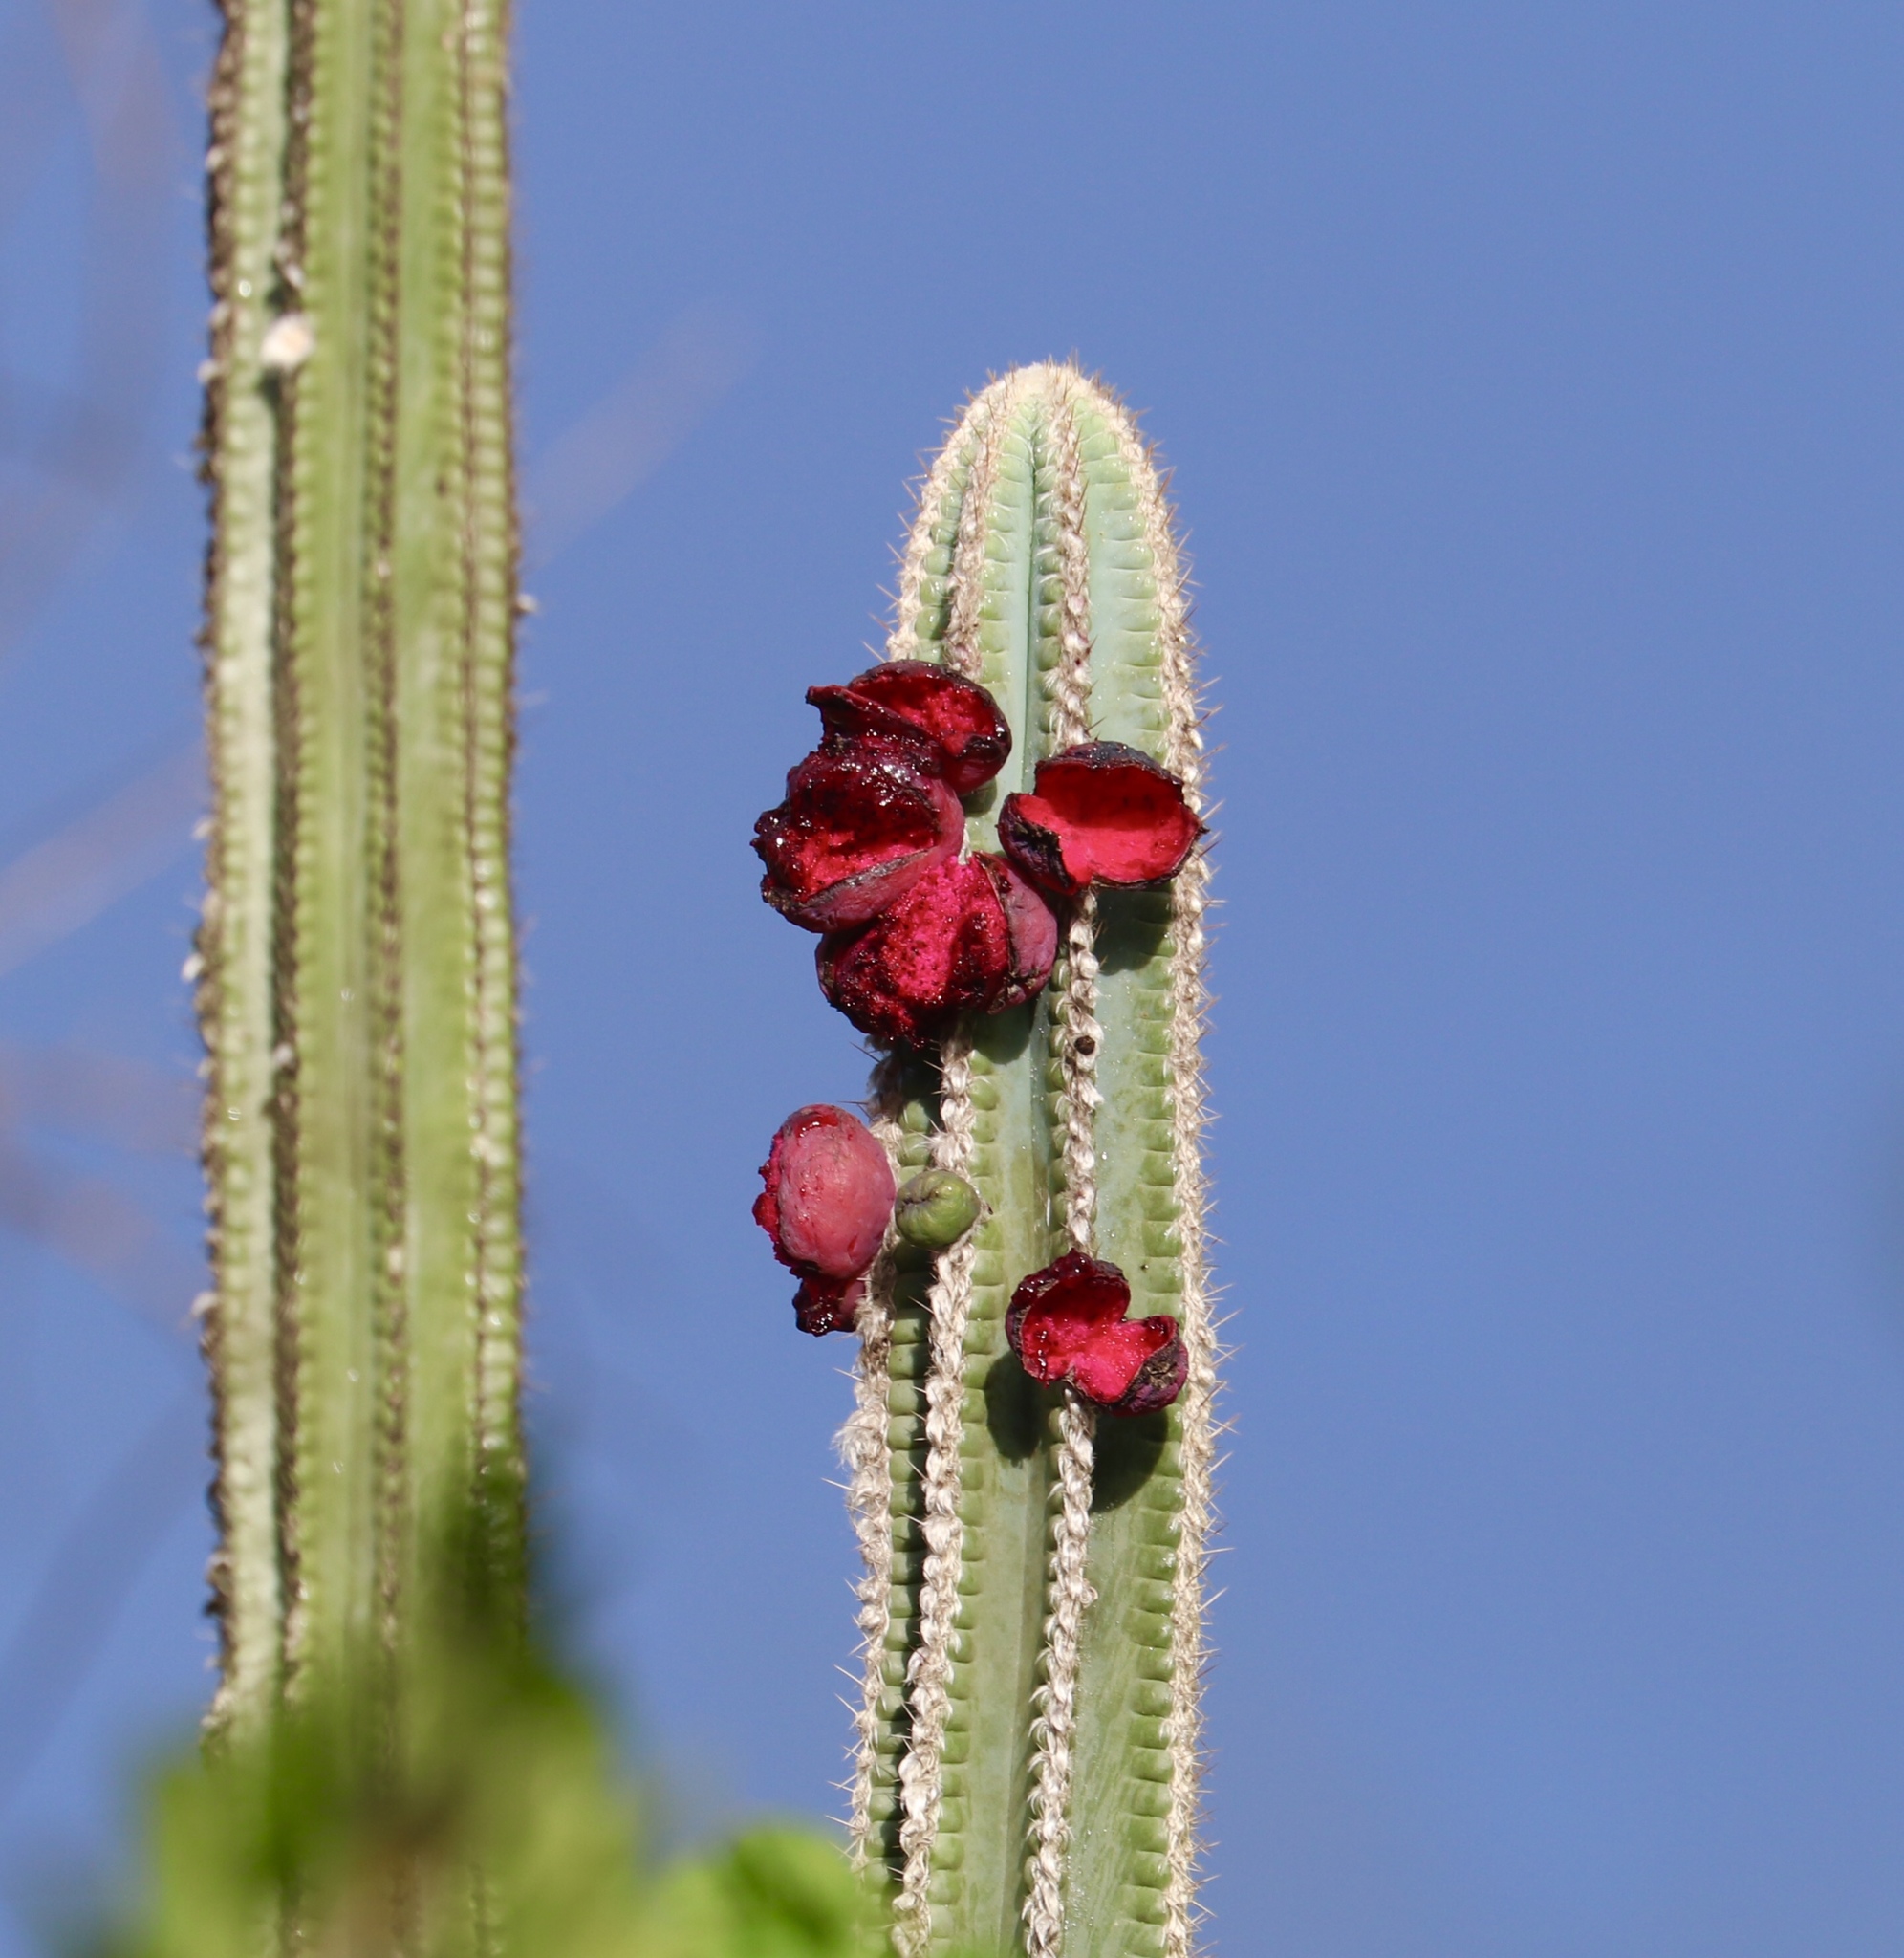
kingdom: Plantae
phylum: Tracheophyta
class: Magnoliopsida
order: Caryophyllales
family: Cactaceae
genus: Pilosocereus
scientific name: Pilosocereus polygonus
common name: Key tree cactus
